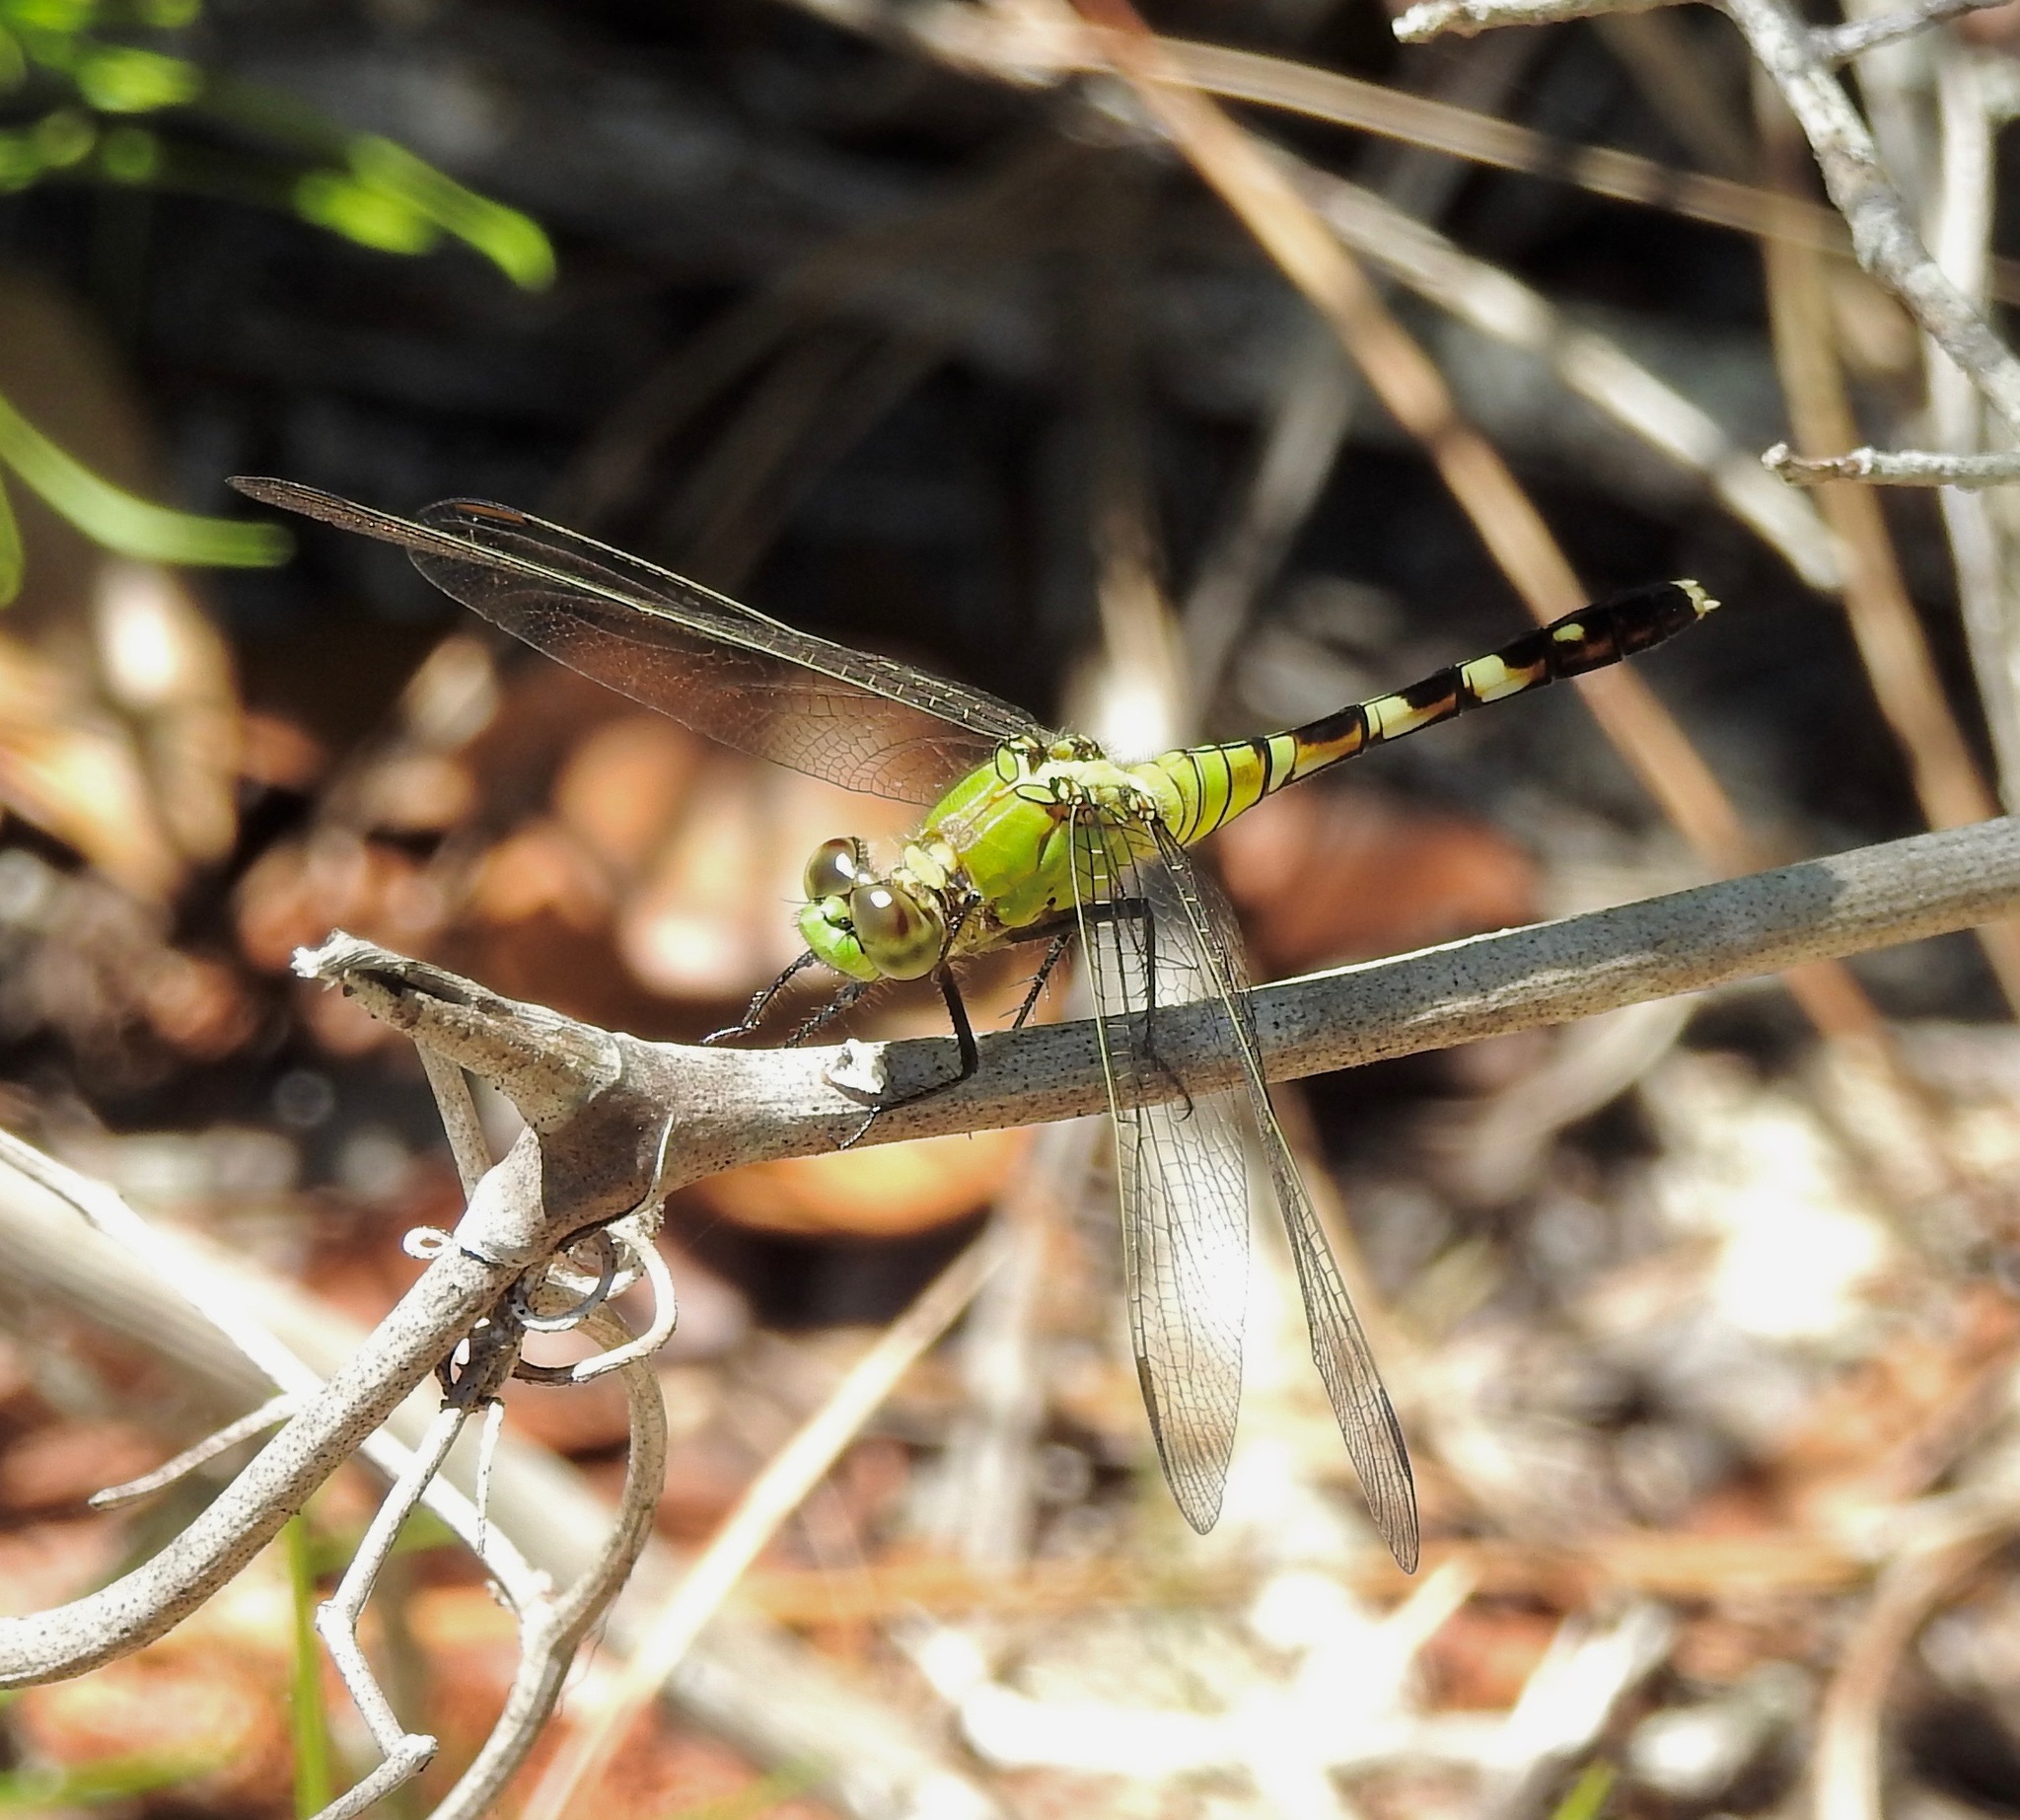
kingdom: Animalia
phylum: Arthropoda
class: Insecta
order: Odonata
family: Libellulidae
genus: Erythemis
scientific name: Erythemis simplicicollis
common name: Eastern pondhawk
